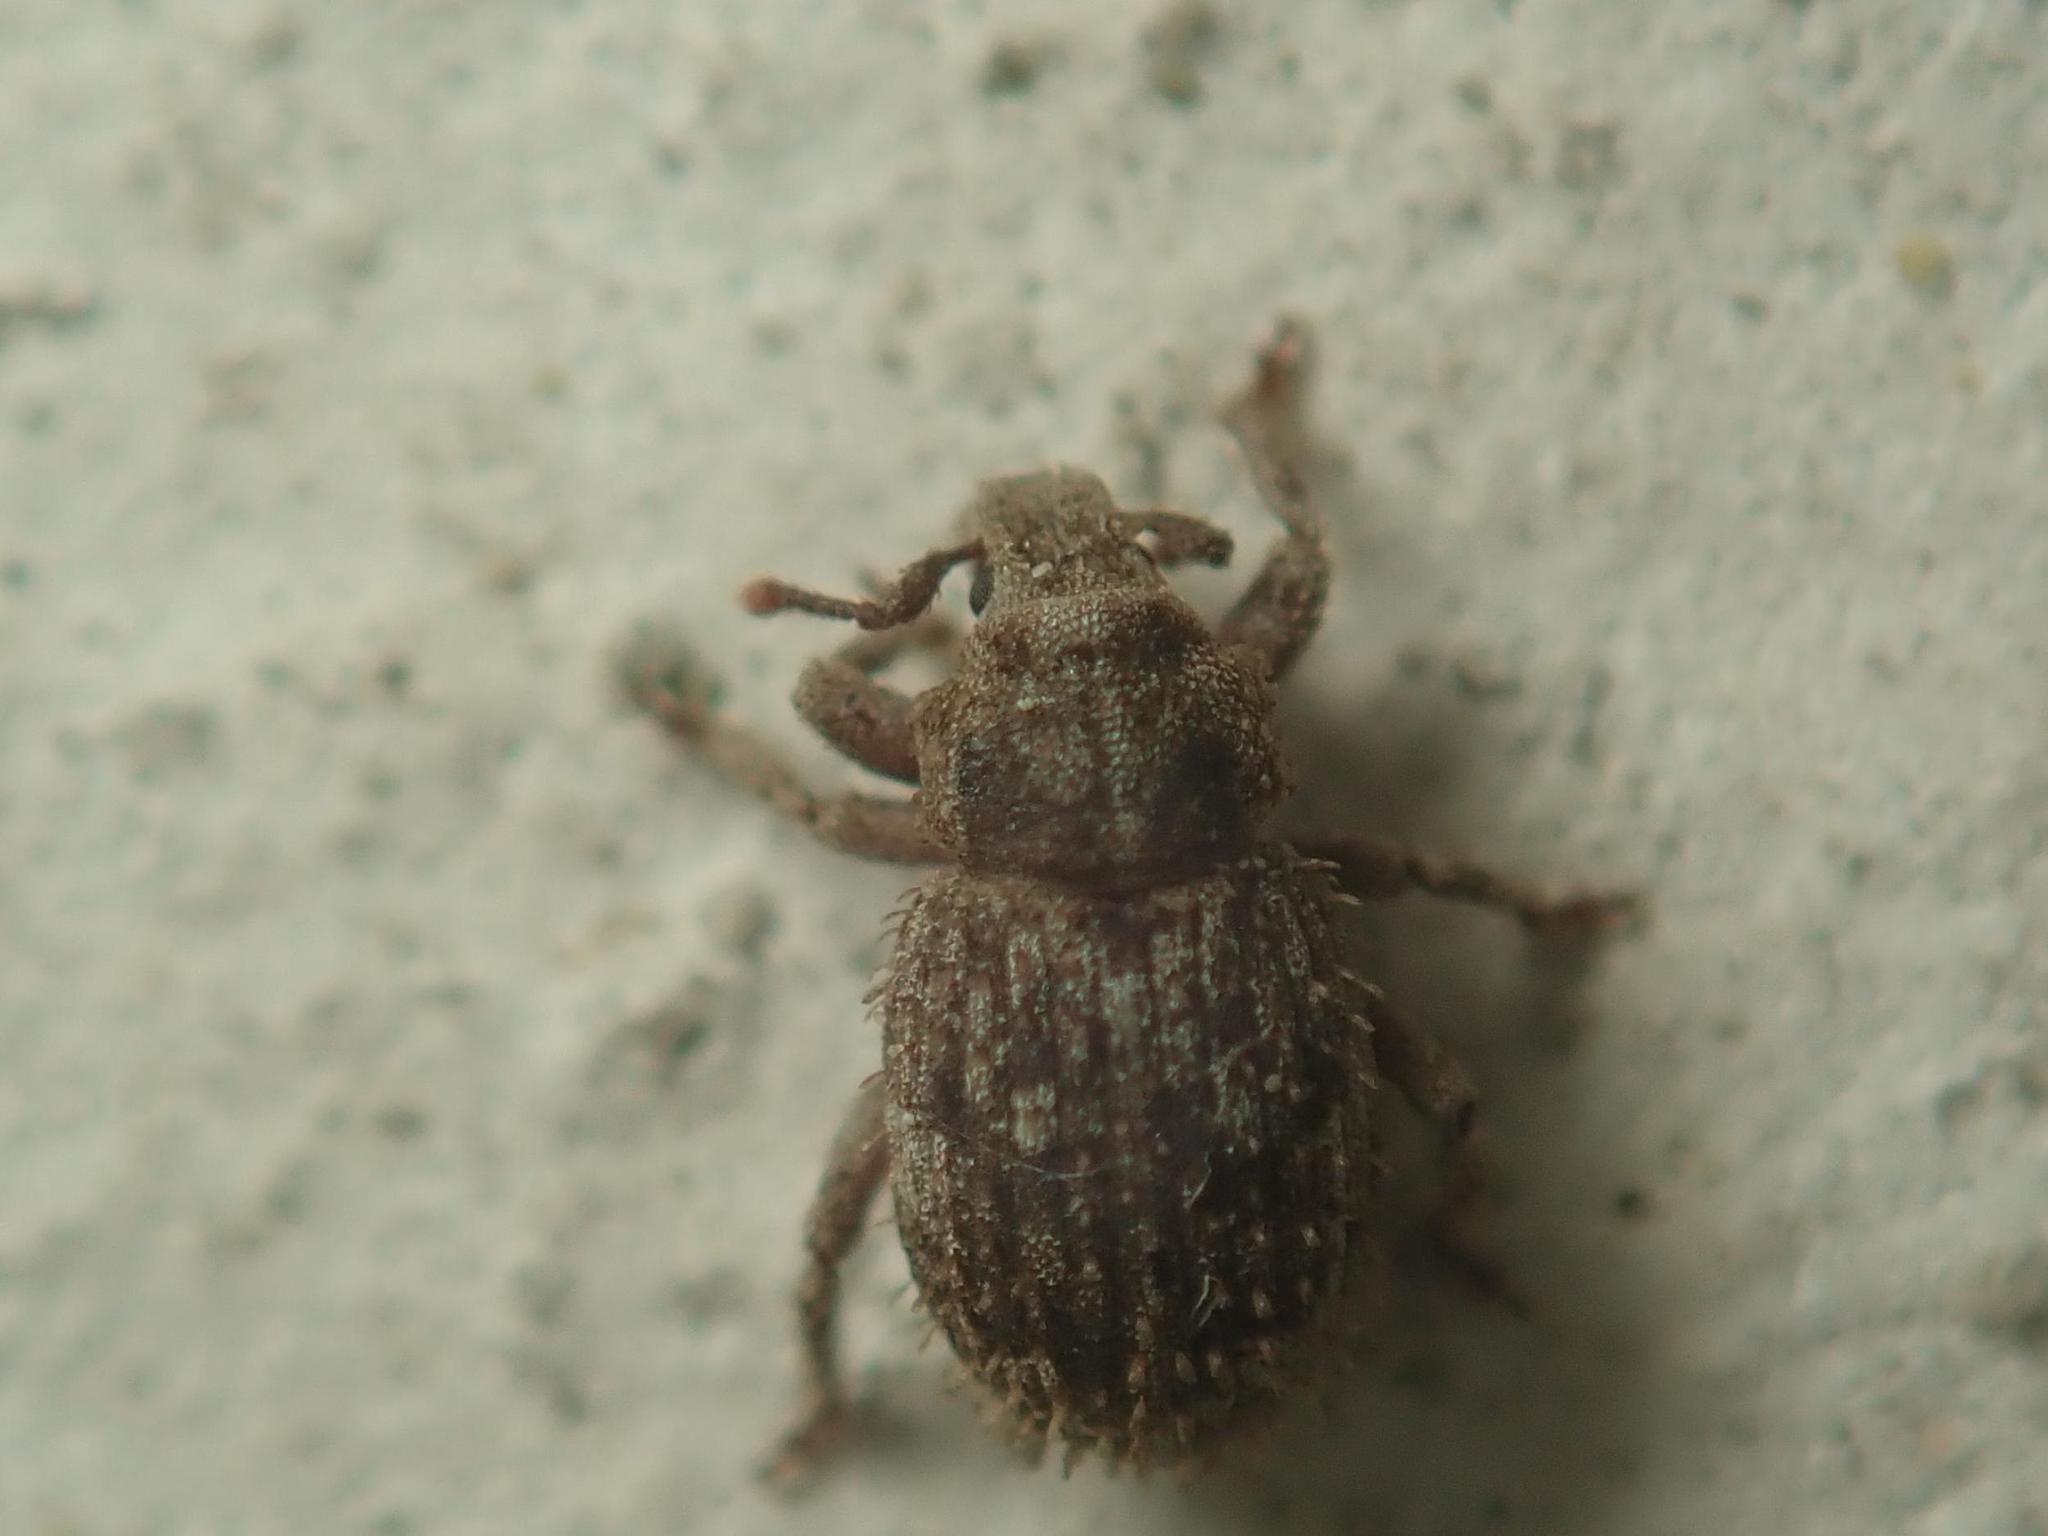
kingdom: Animalia
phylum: Arthropoda
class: Insecta
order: Coleoptera
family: Curculionidae
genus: Trachyphloeus
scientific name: Trachyphloeus scabriculus
